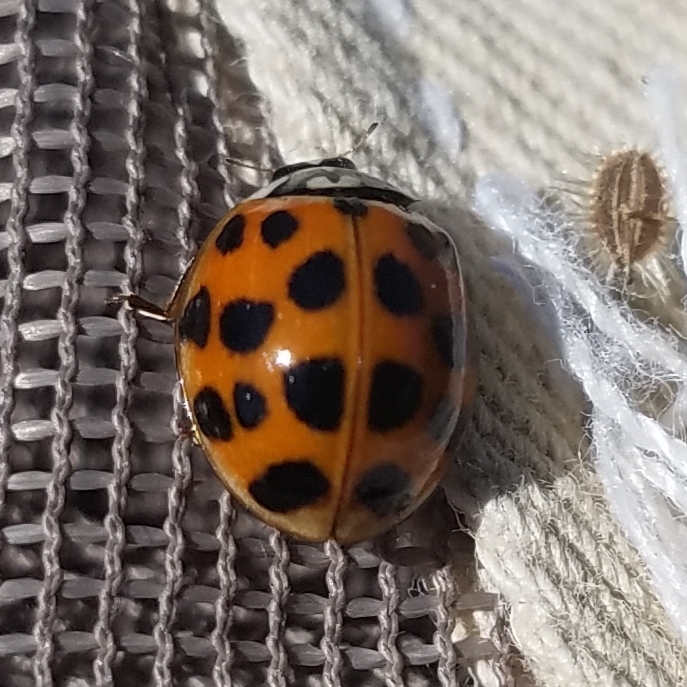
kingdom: Animalia
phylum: Arthropoda
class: Insecta
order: Coleoptera
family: Coccinellidae
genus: Harmonia
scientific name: Harmonia axyridis
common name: Harlequin ladybird
